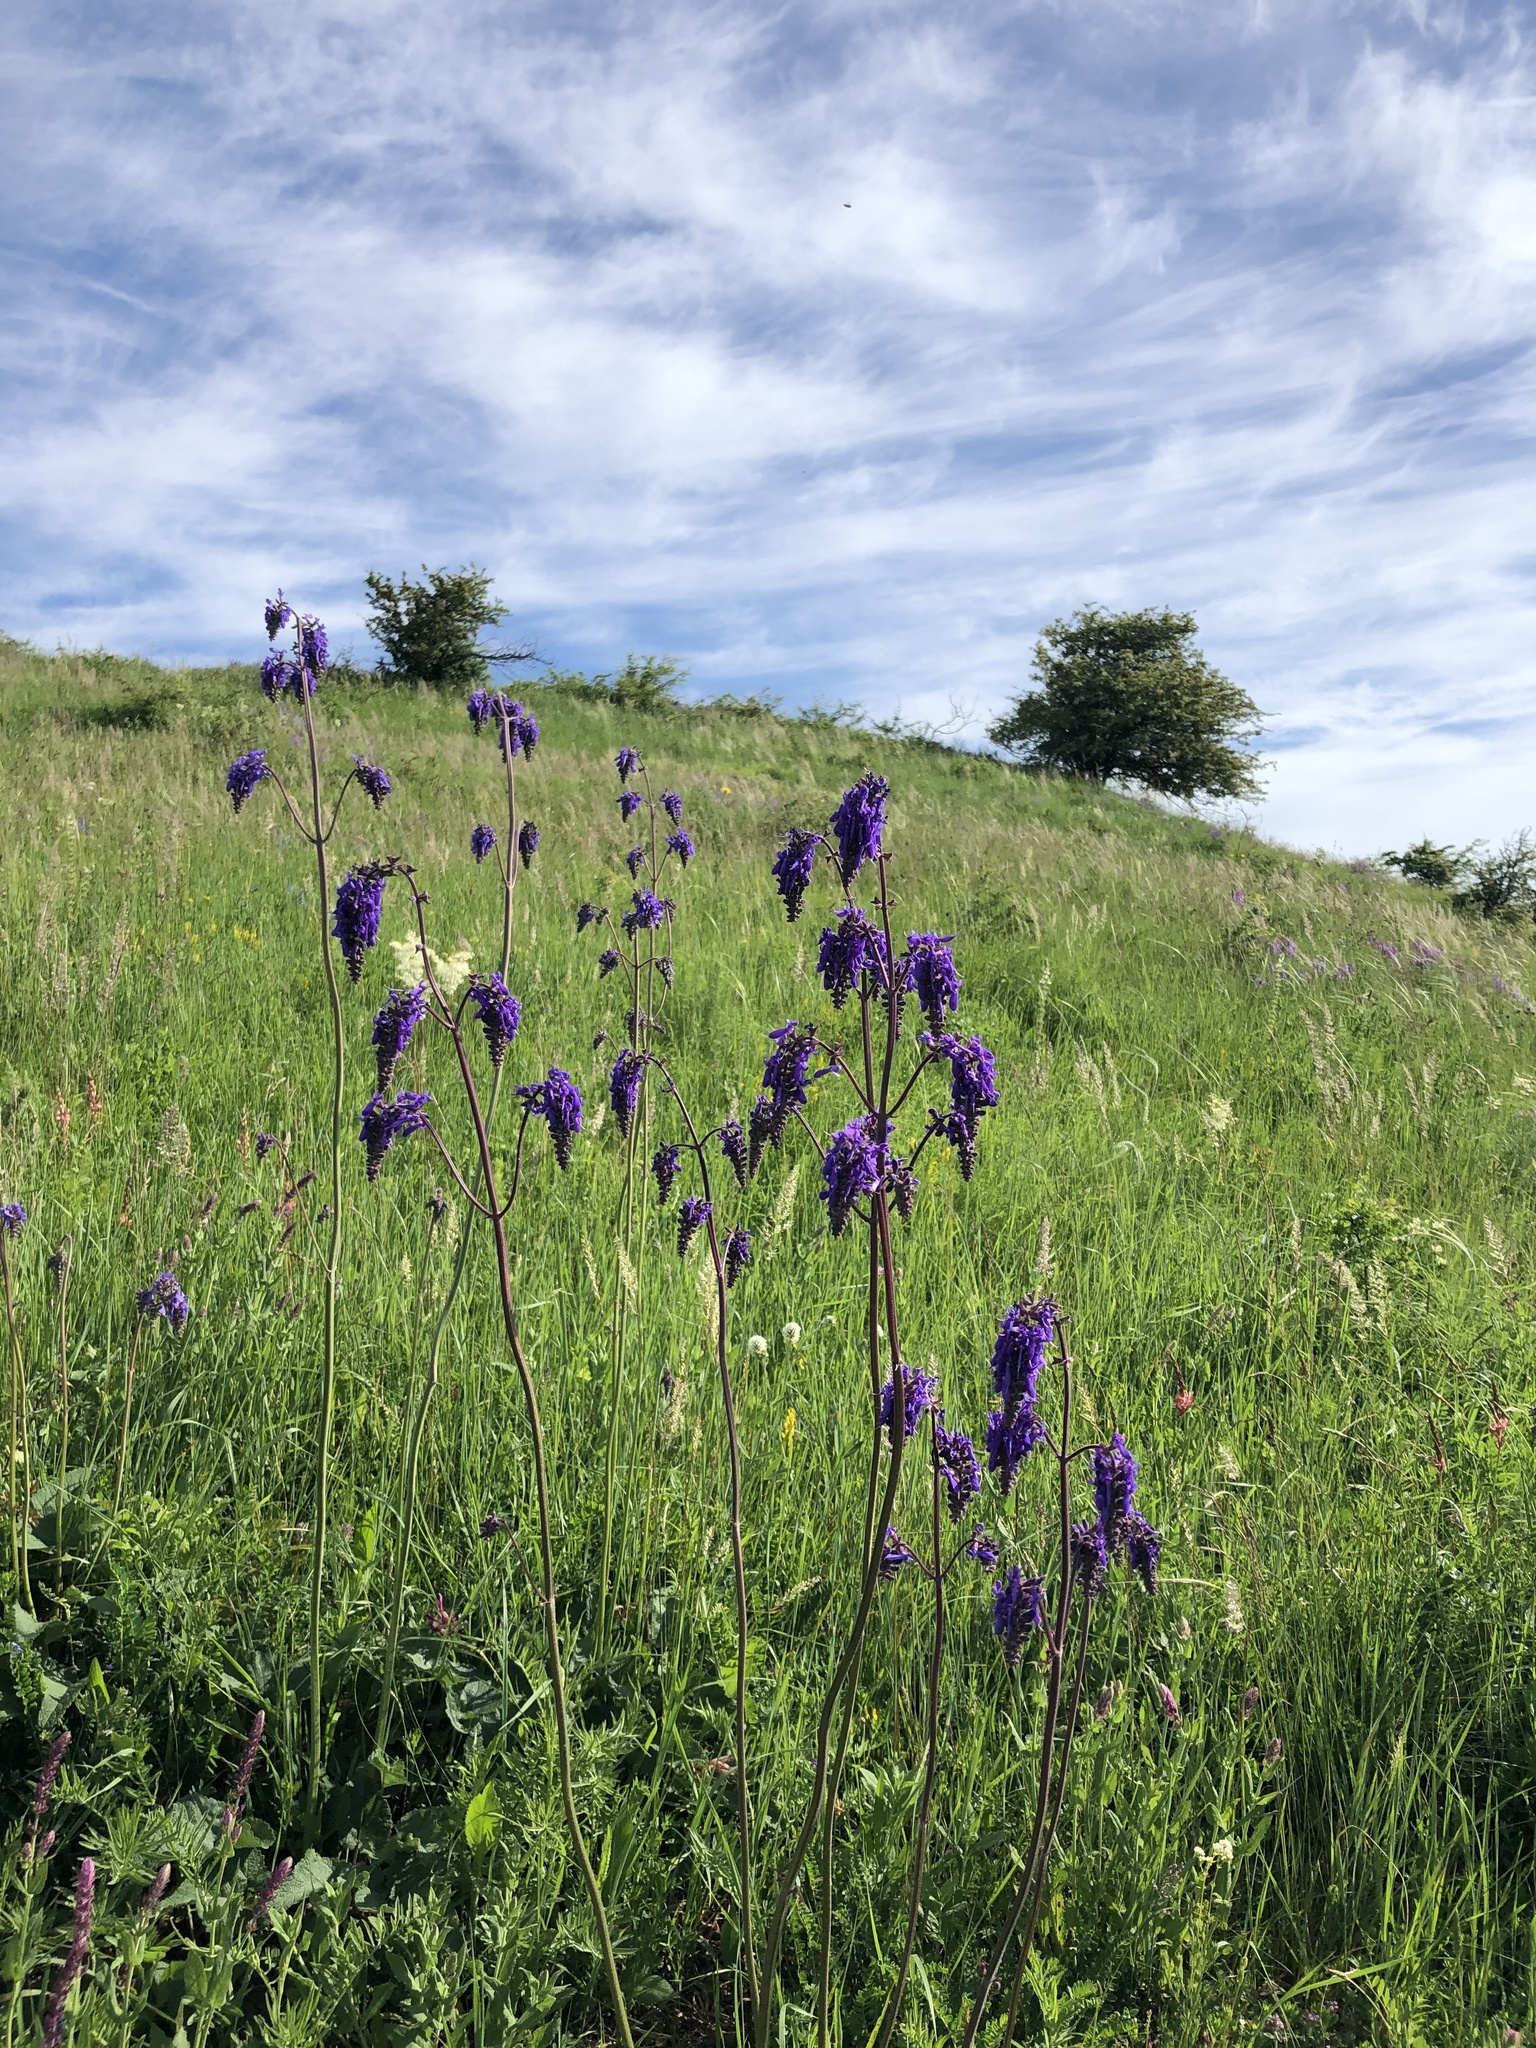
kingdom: Plantae
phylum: Tracheophyta
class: Magnoliopsida
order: Lamiales
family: Lamiaceae
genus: Salvia
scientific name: Salvia nutans
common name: Nodding sage
